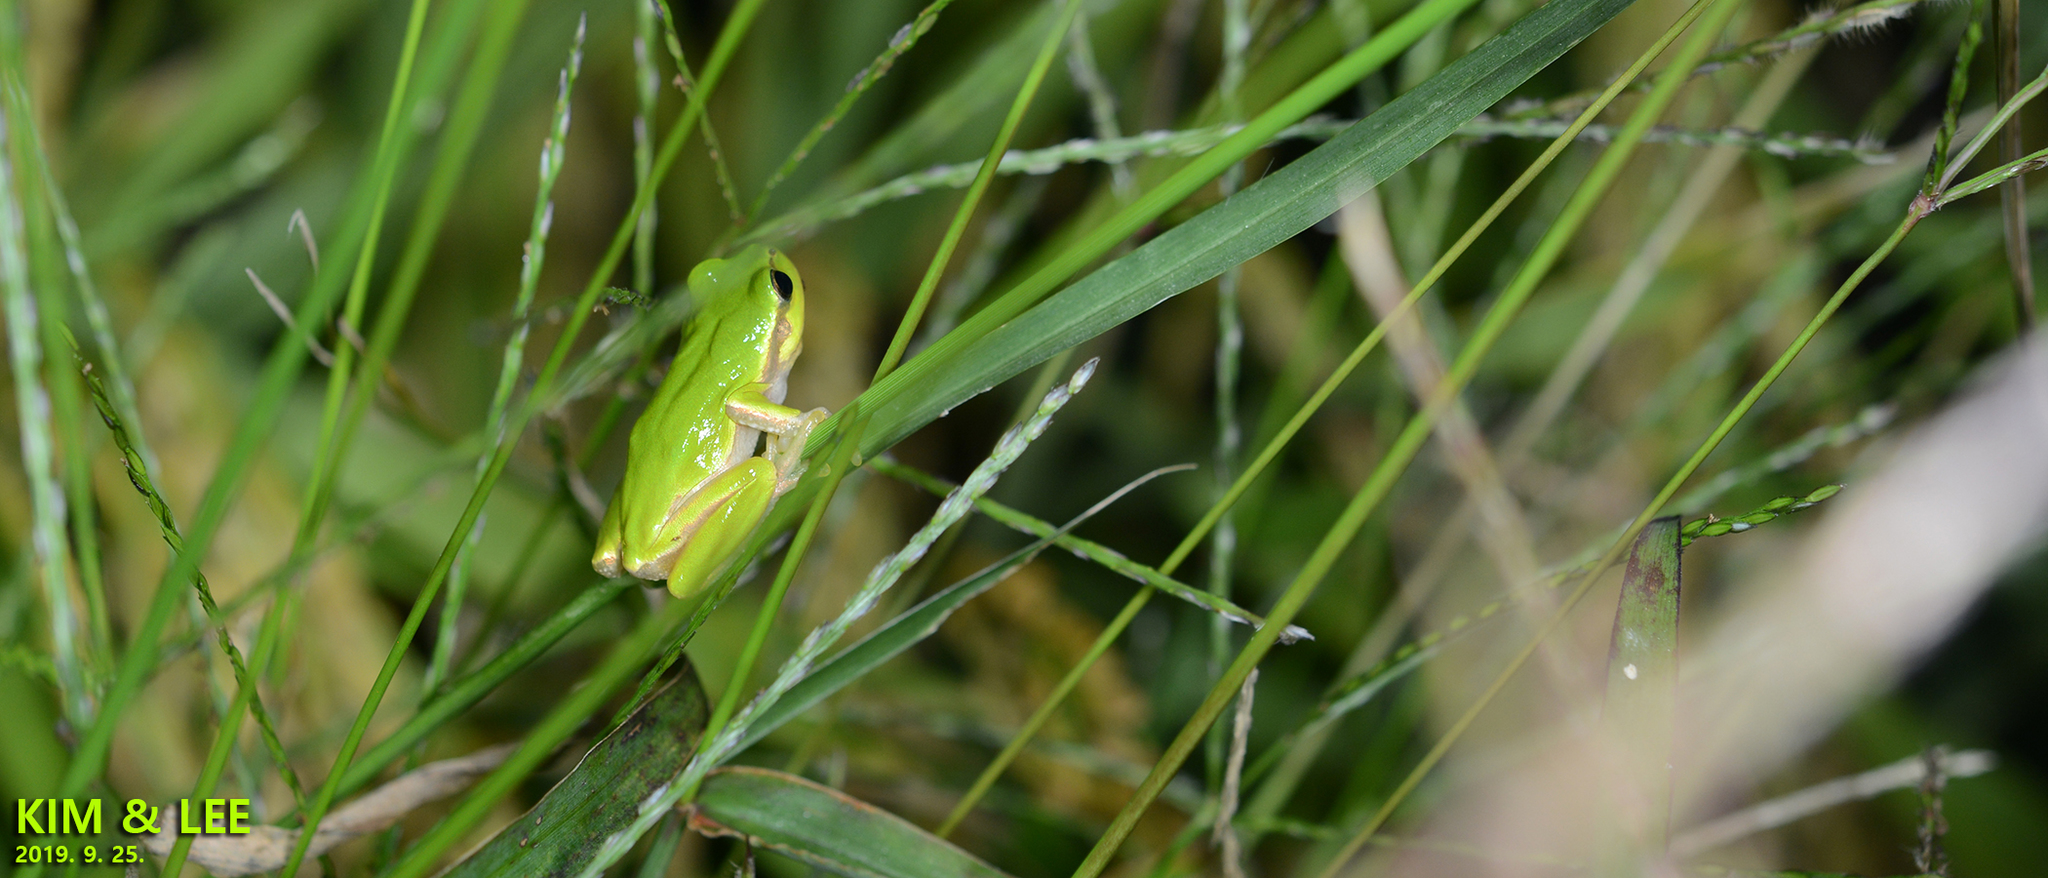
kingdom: Animalia
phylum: Chordata
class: Amphibia
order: Anura
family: Hylidae
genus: Dryophytes
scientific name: Dryophytes japonicus
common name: Japanese treefrog
